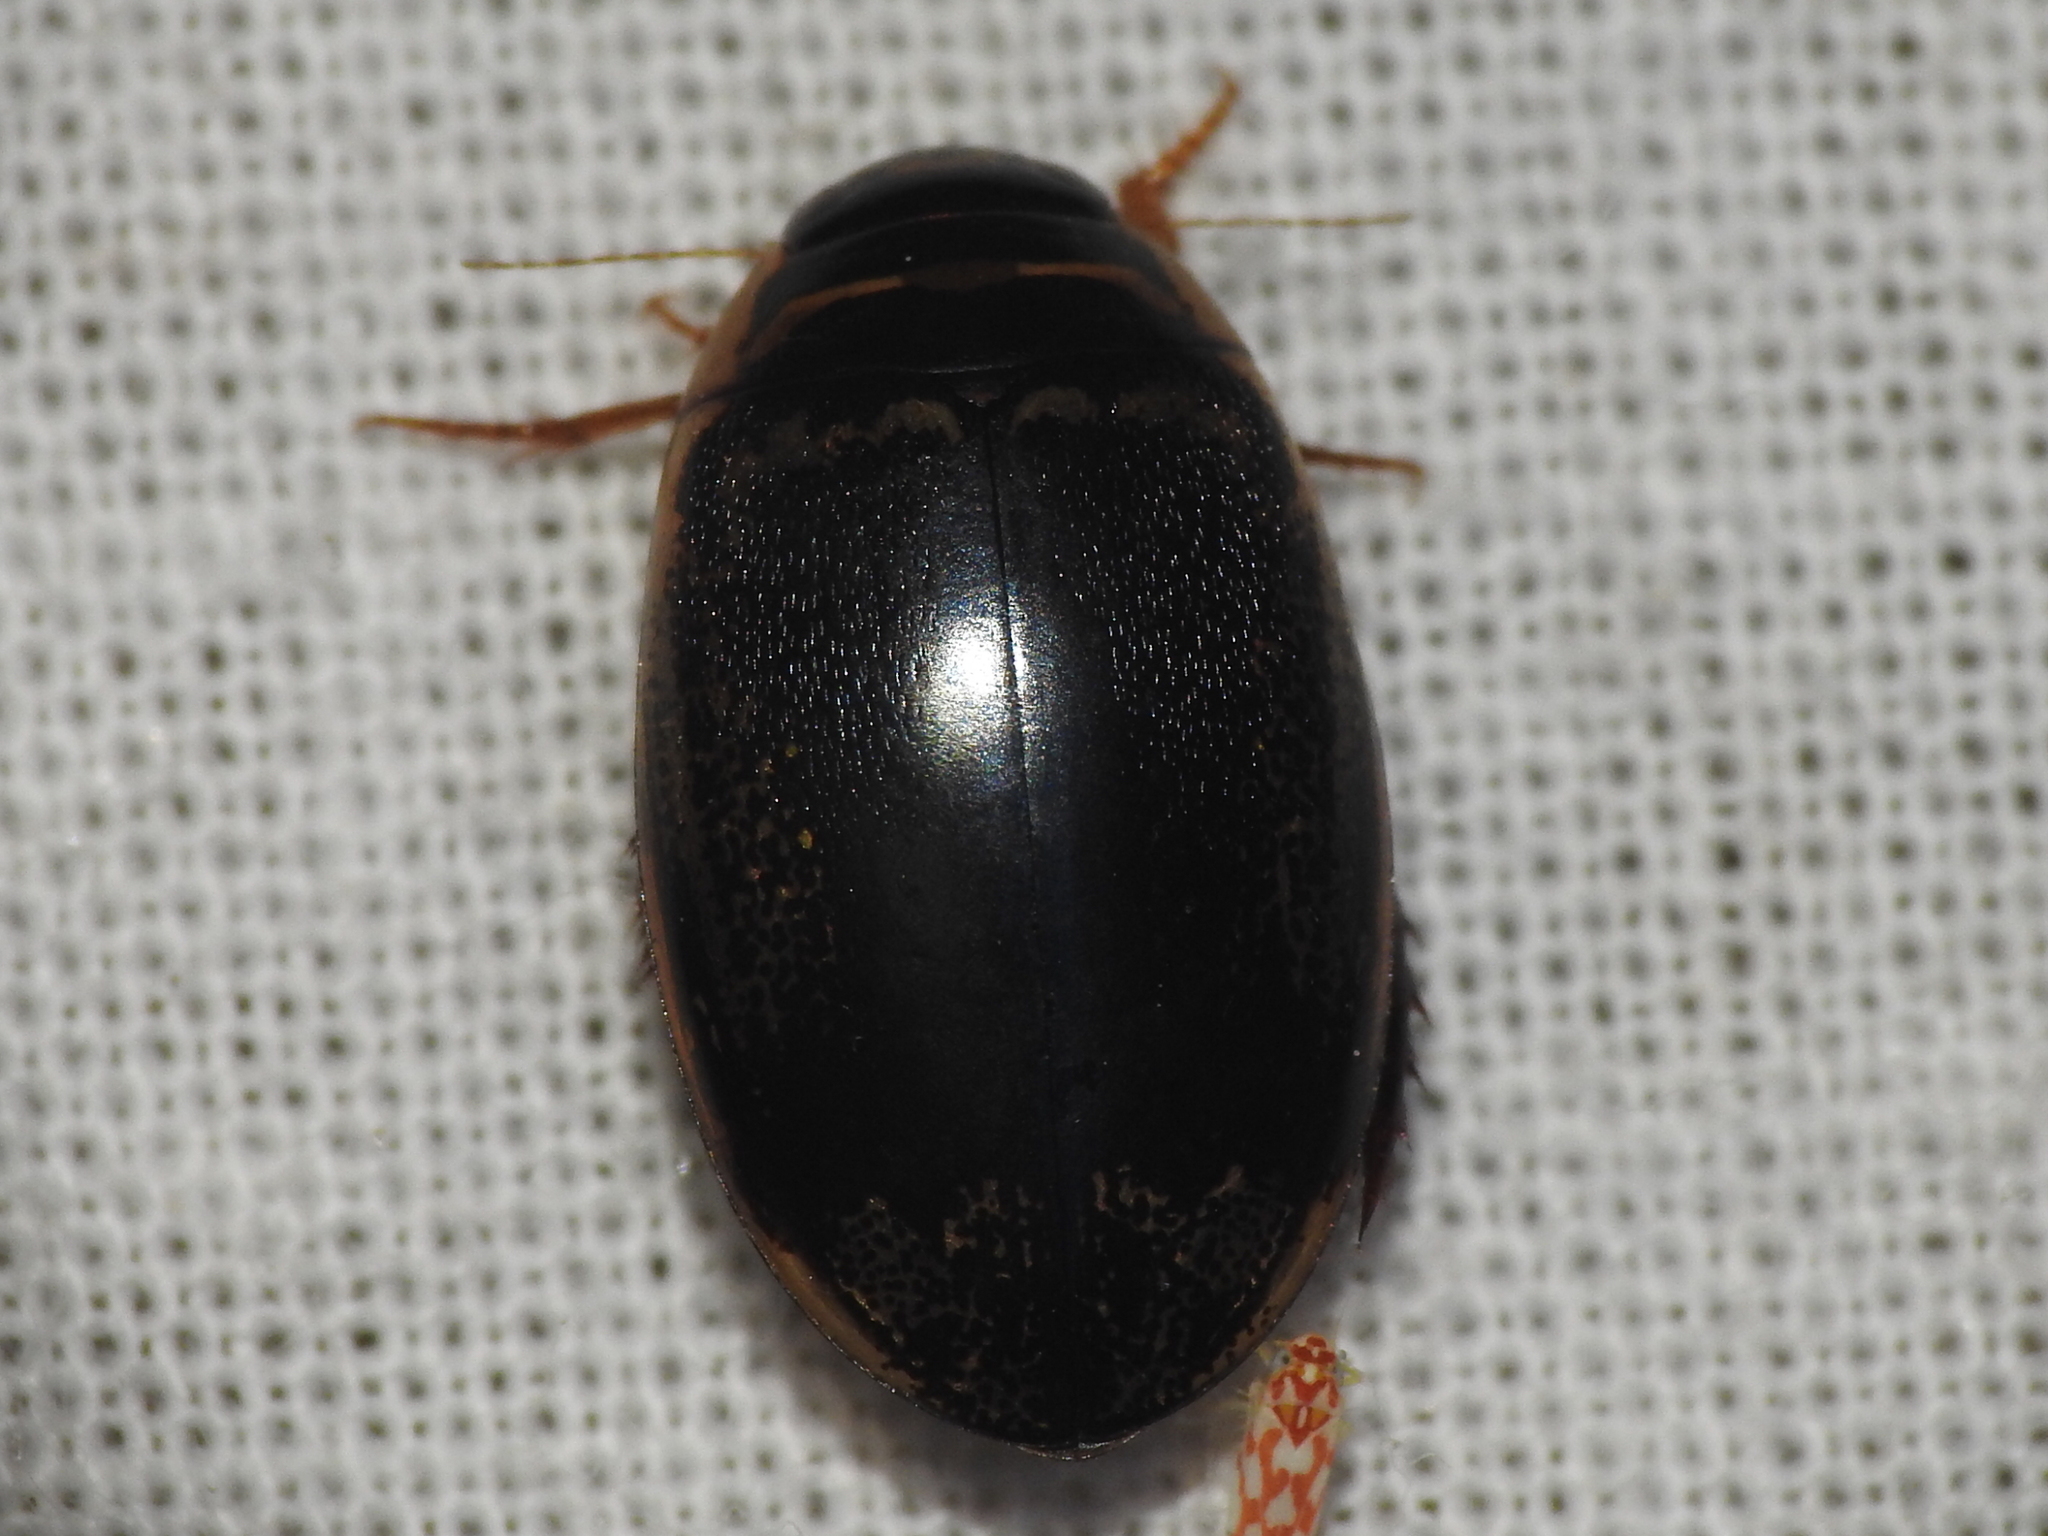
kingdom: Animalia
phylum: Arthropoda
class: Insecta
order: Coleoptera
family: Dytiscidae
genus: Thermonectus
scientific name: Thermonectus basillaris
